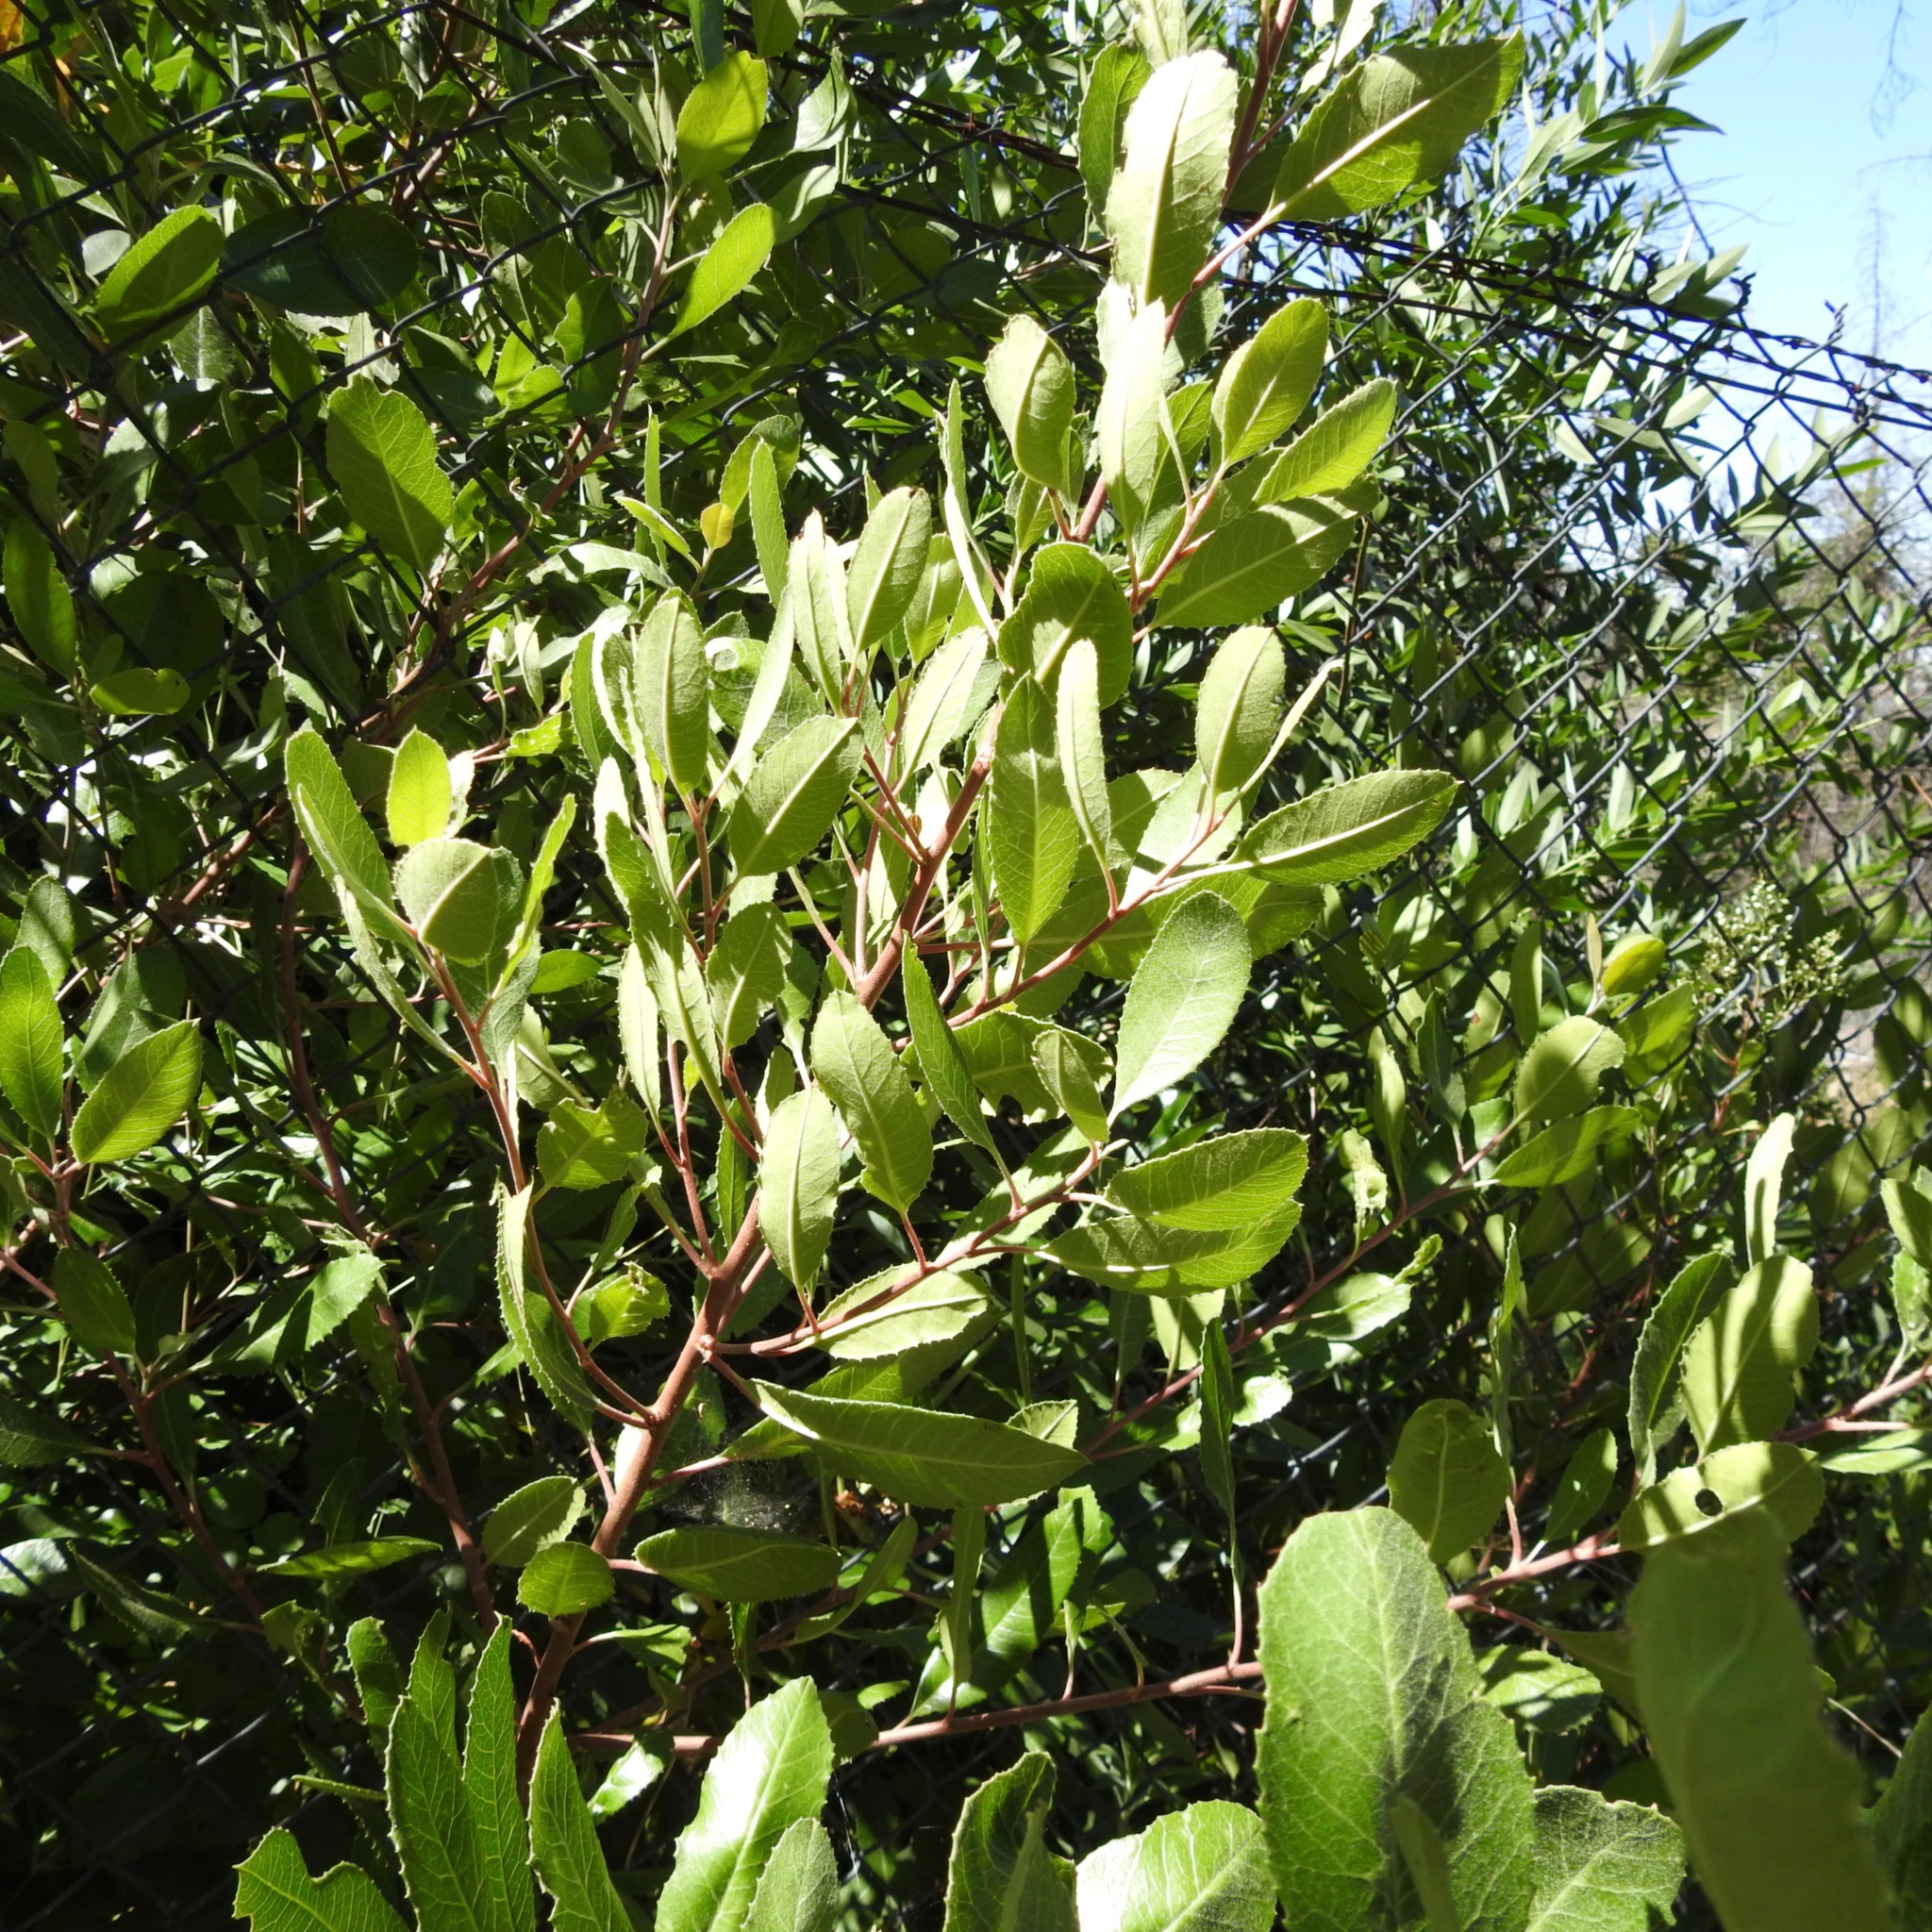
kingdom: Plantae
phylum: Tracheophyta
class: Magnoliopsida
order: Rosales
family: Rosaceae
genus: Heteromeles
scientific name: Heteromeles arbutifolia
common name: California-holly
